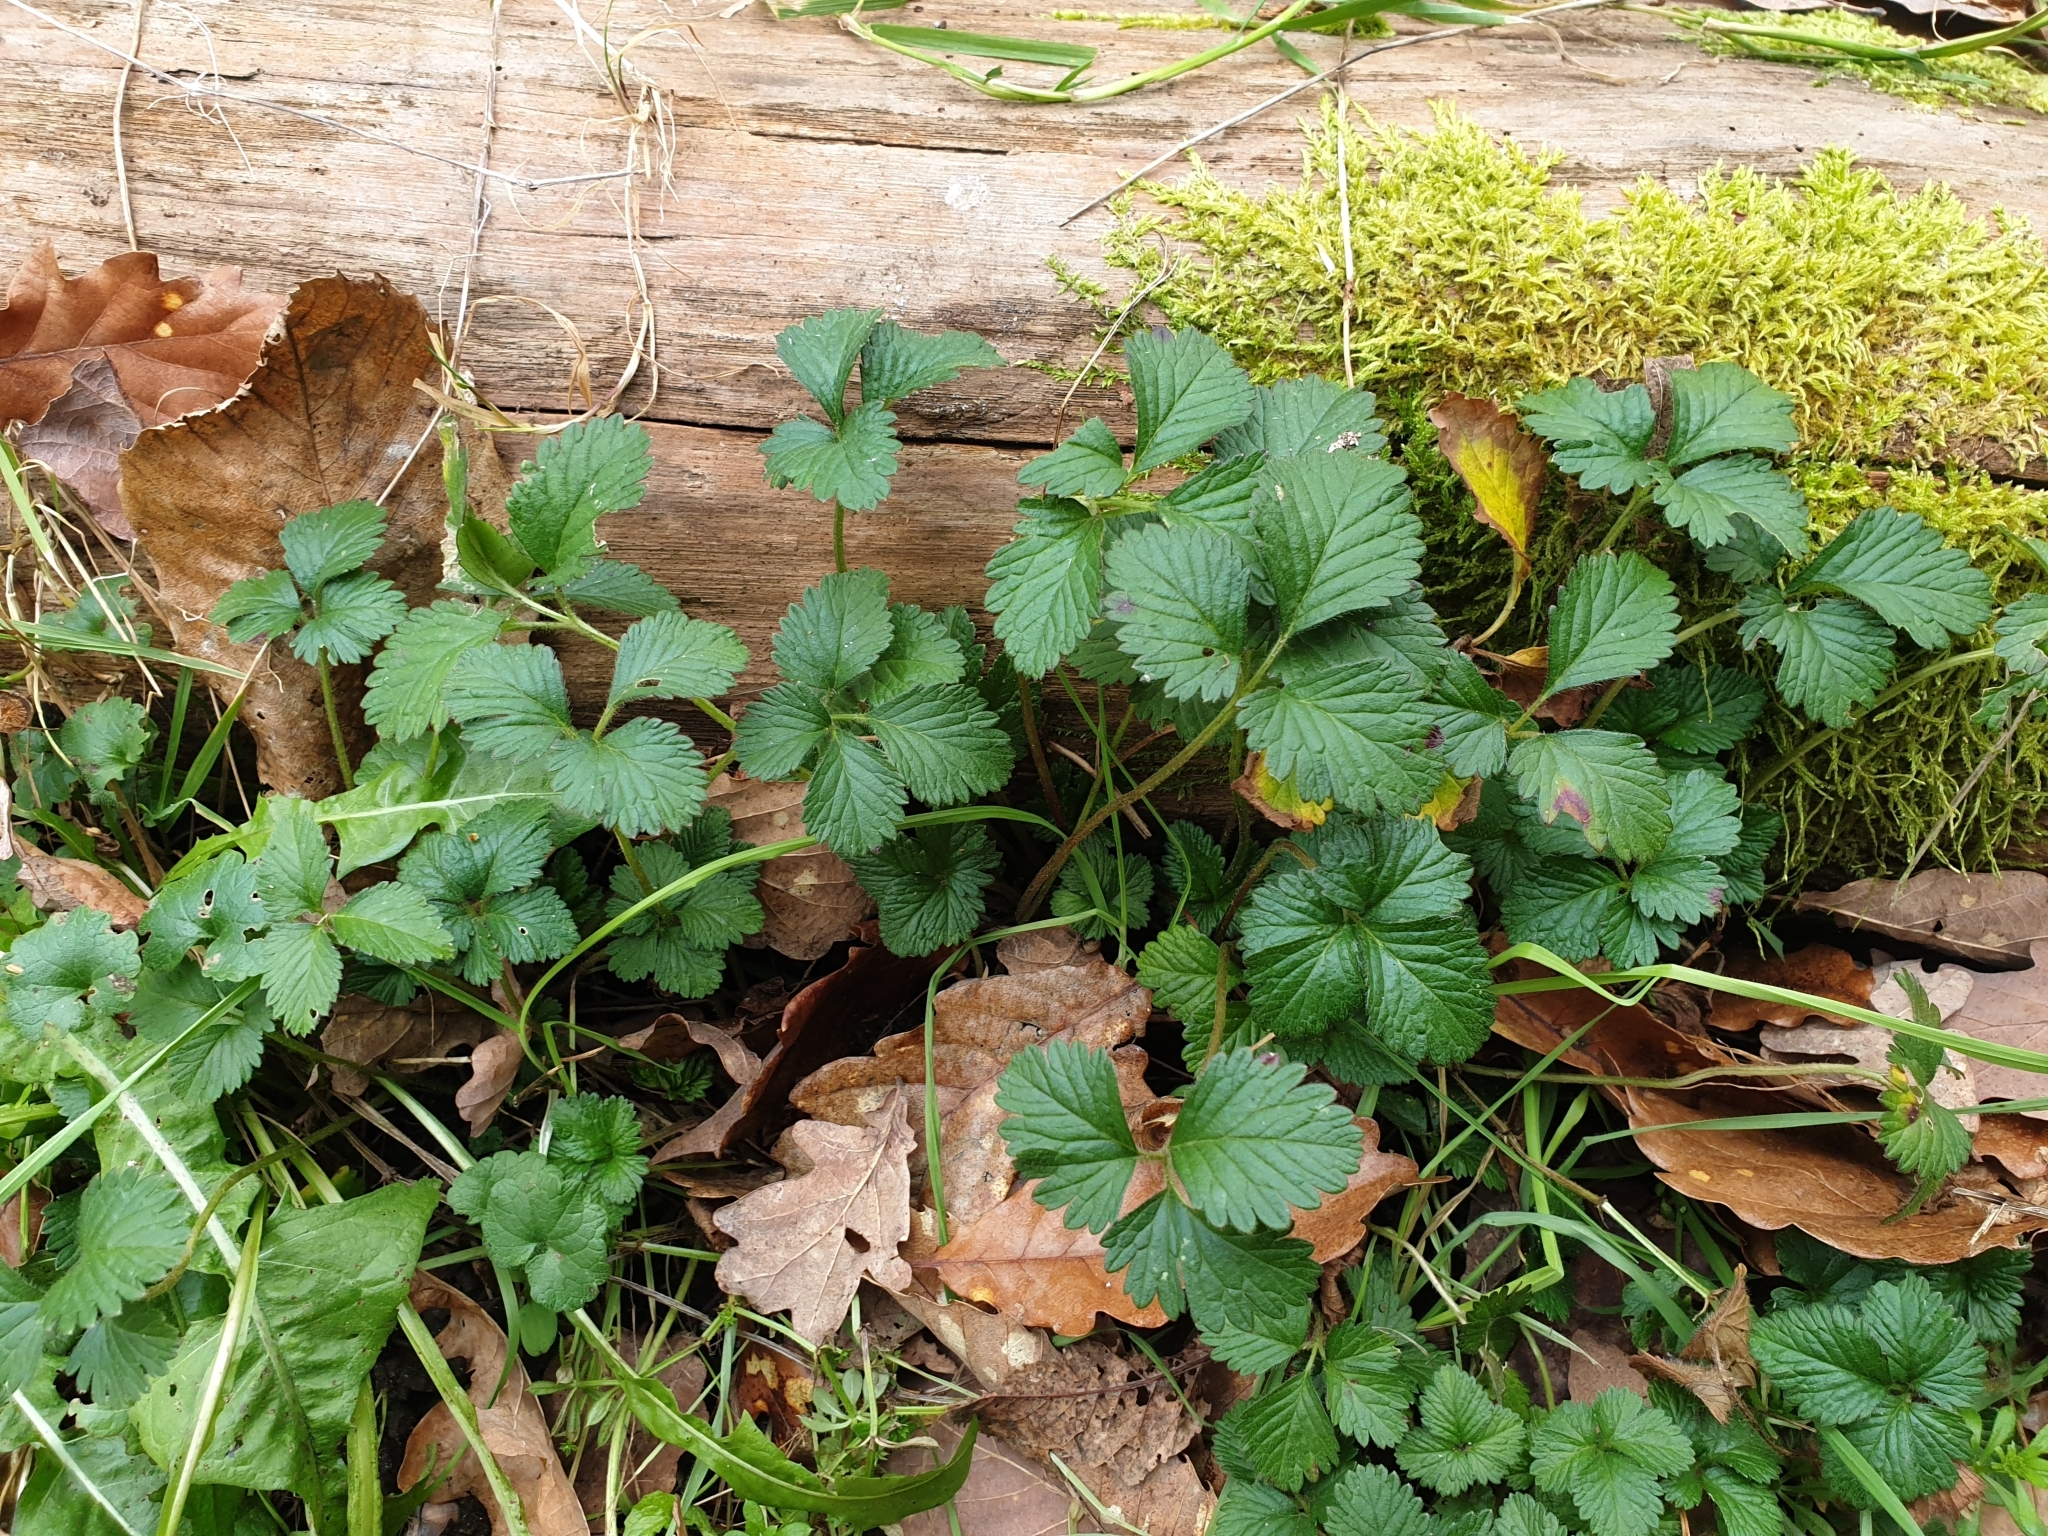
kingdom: Plantae
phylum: Tracheophyta
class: Magnoliopsida
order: Rosales
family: Rosaceae
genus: Potentilla
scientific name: Potentilla indica
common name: Yellow-flowered strawberry
